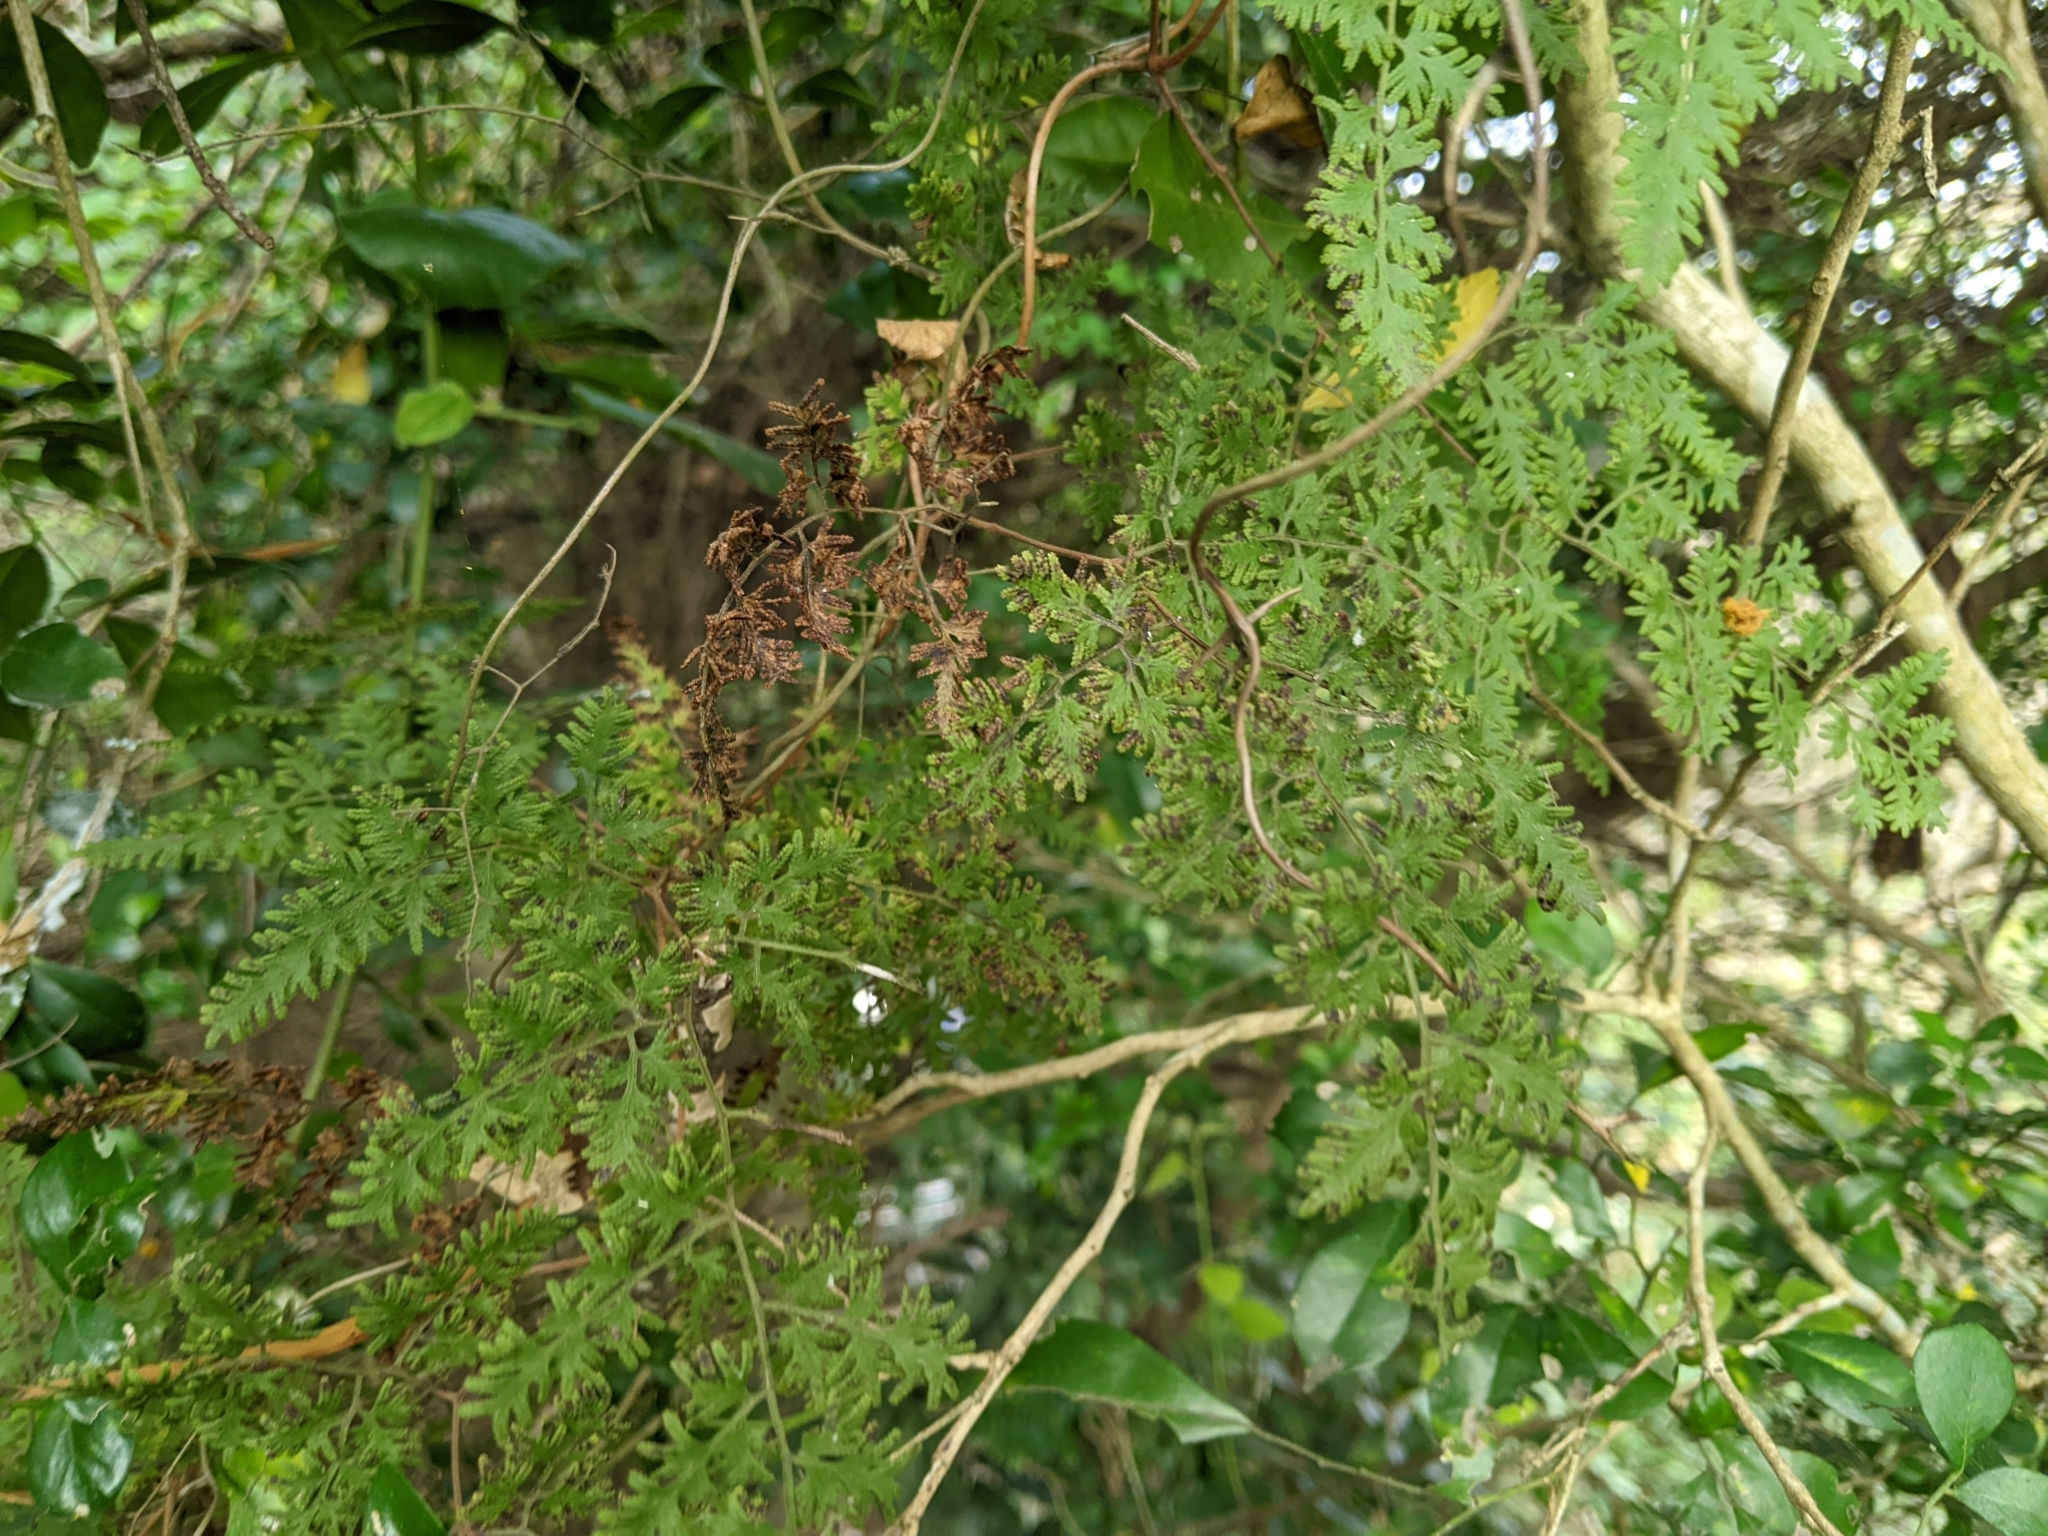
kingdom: Plantae
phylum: Tracheophyta
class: Polypodiopsida
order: Schizaeales
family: Lygodiaceae
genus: Lygodium
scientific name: Lygodium japonicum
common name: Japanese climbing fern
